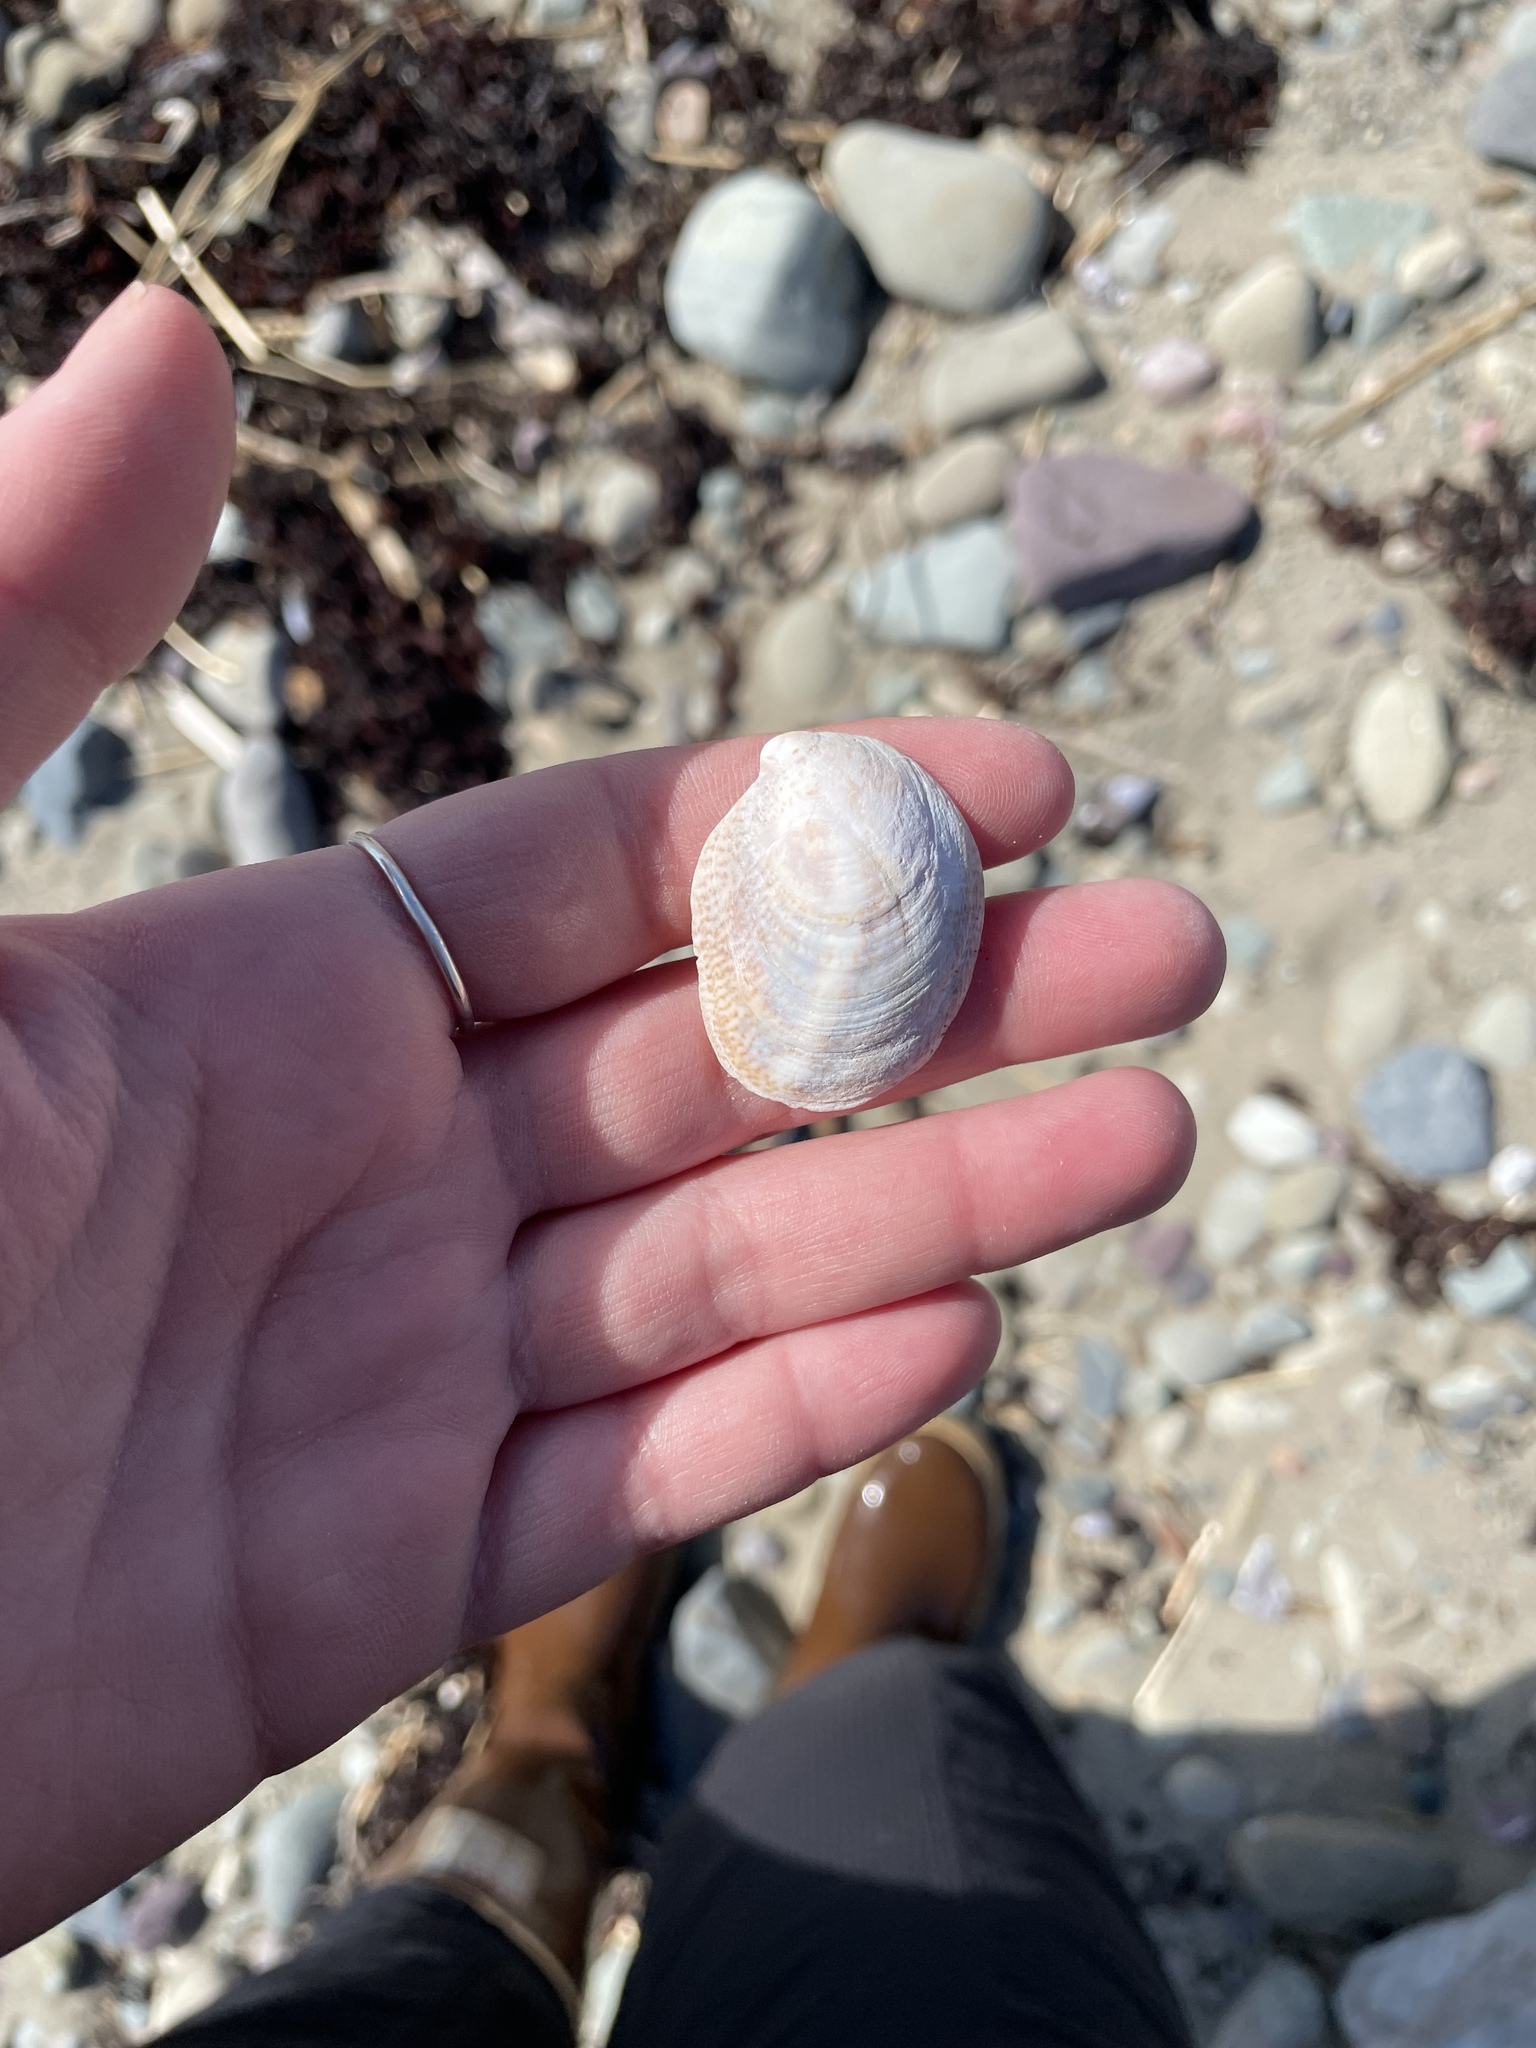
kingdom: Animalia
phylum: Mollusca
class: Gastropoda
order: Littorinimorpha
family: Calyptraeidae
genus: Crepidula
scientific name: Crepidula fornicata
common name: Slipper limpet
